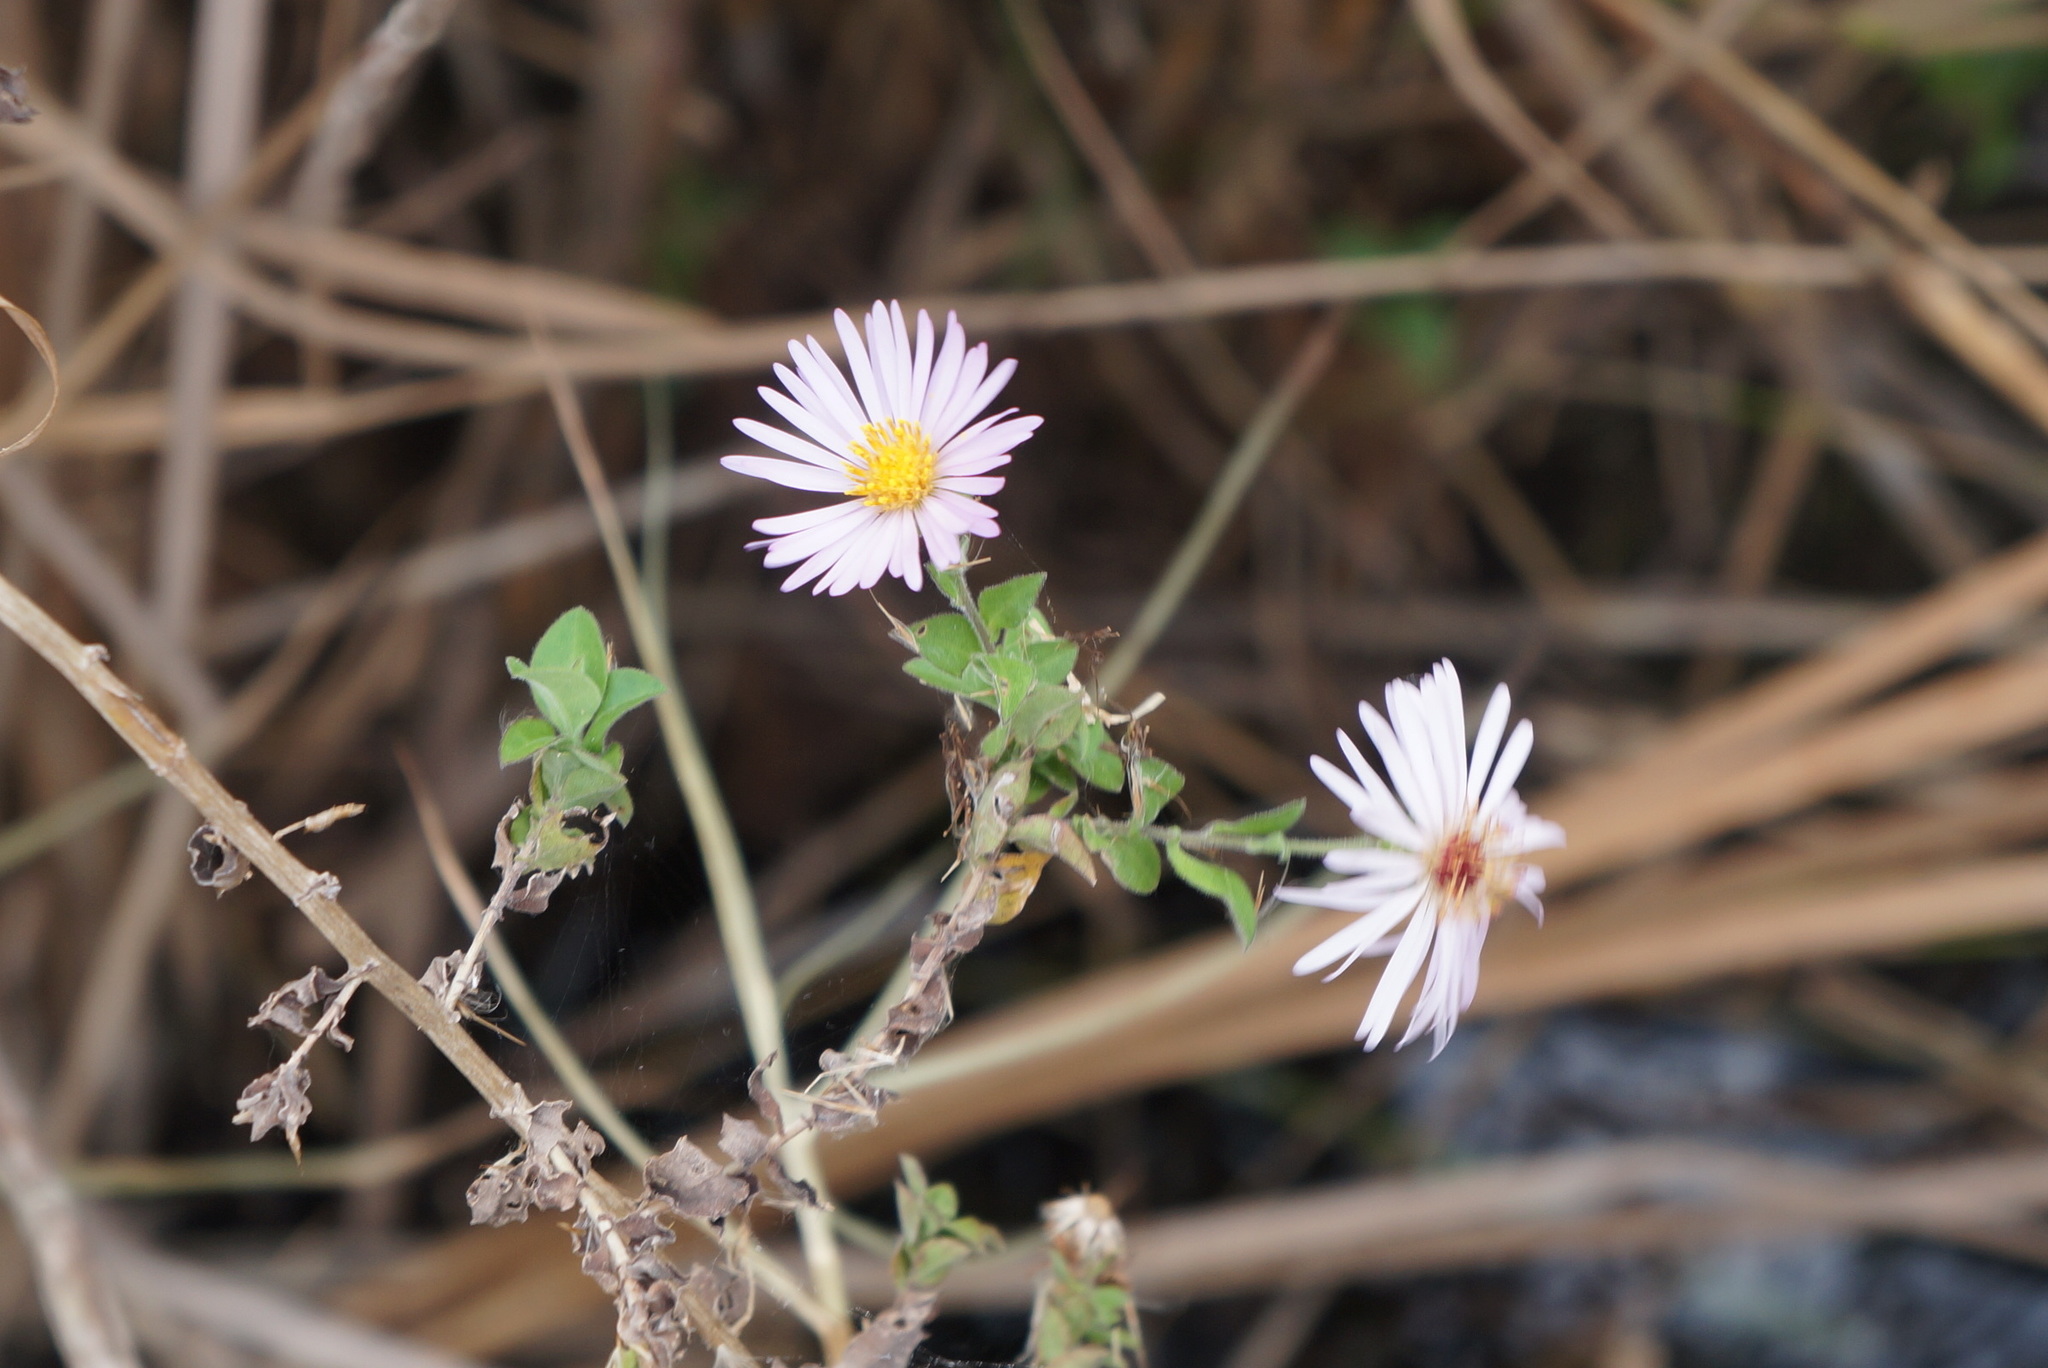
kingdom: Plantae
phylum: Tracheophyta
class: Magnoliopsida
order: Asterales
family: Asteraceae
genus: Ampelaster
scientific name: Ampelaster carolinianus
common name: Climbing aster
